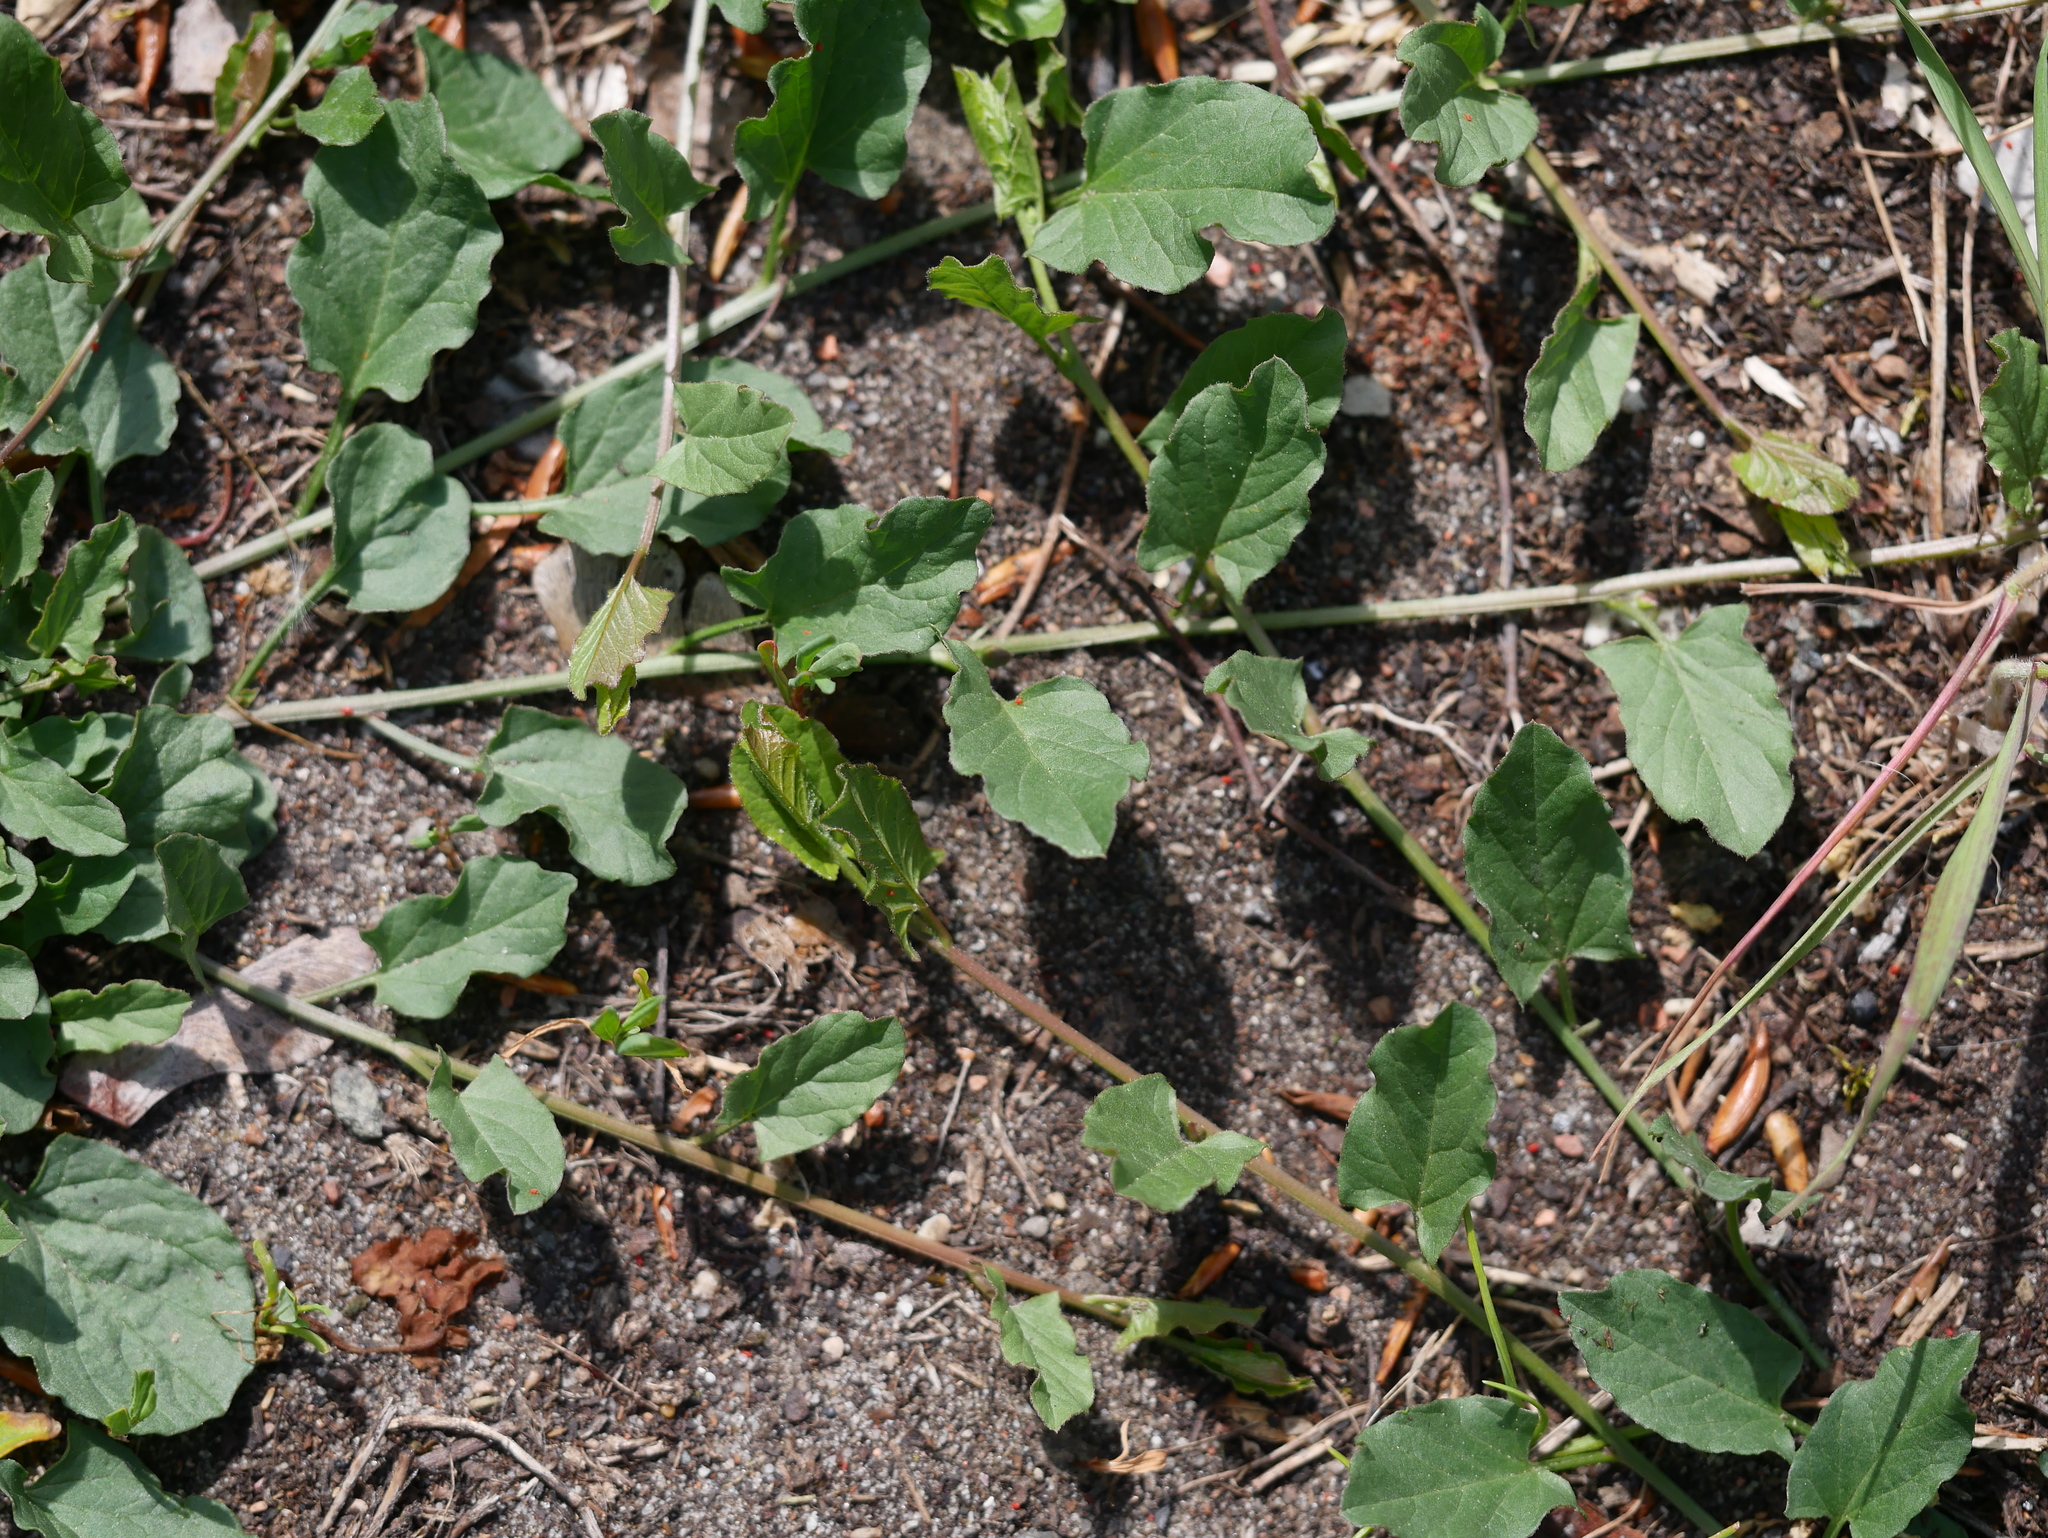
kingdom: Plantae
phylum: Tracheophyta
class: Magnoliopsida
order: Solanales
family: Convolvulaceae
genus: Convolvulus
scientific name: Convolvulus arvensis
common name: Field bindweed
